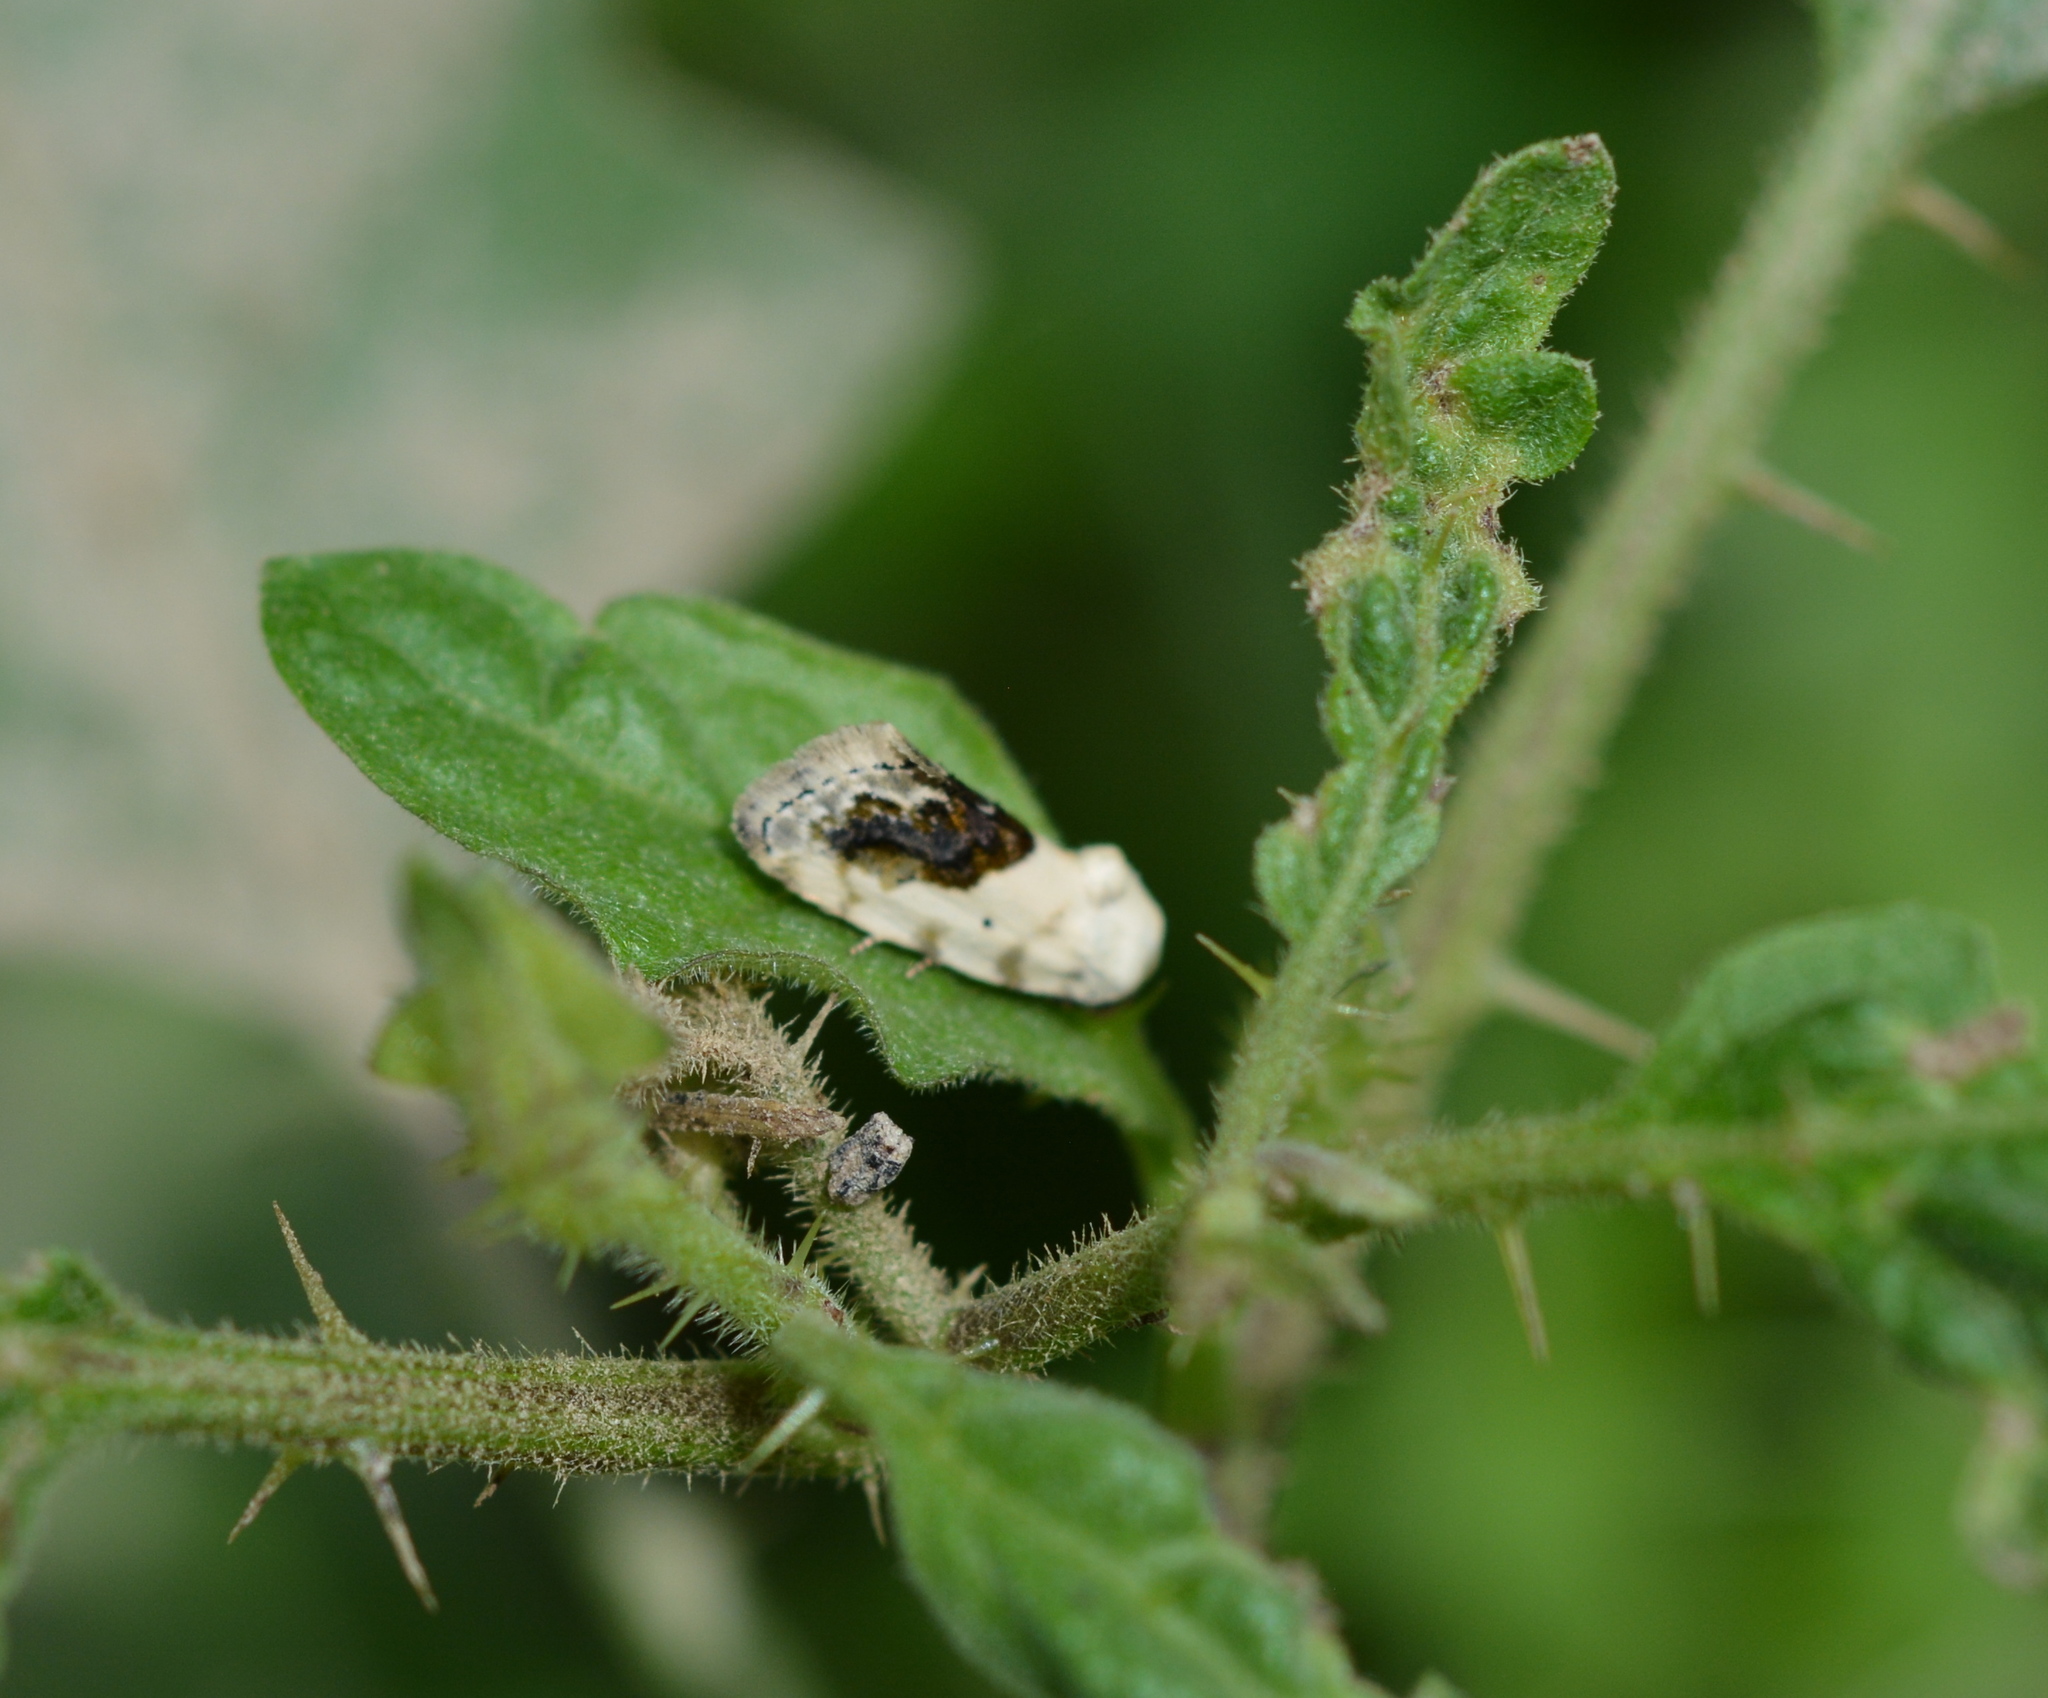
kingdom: Animalia
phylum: Arthropoda
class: Insecta
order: Lepidoptera
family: Noctuidae
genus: Acontia
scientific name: Acontia erastrioides
